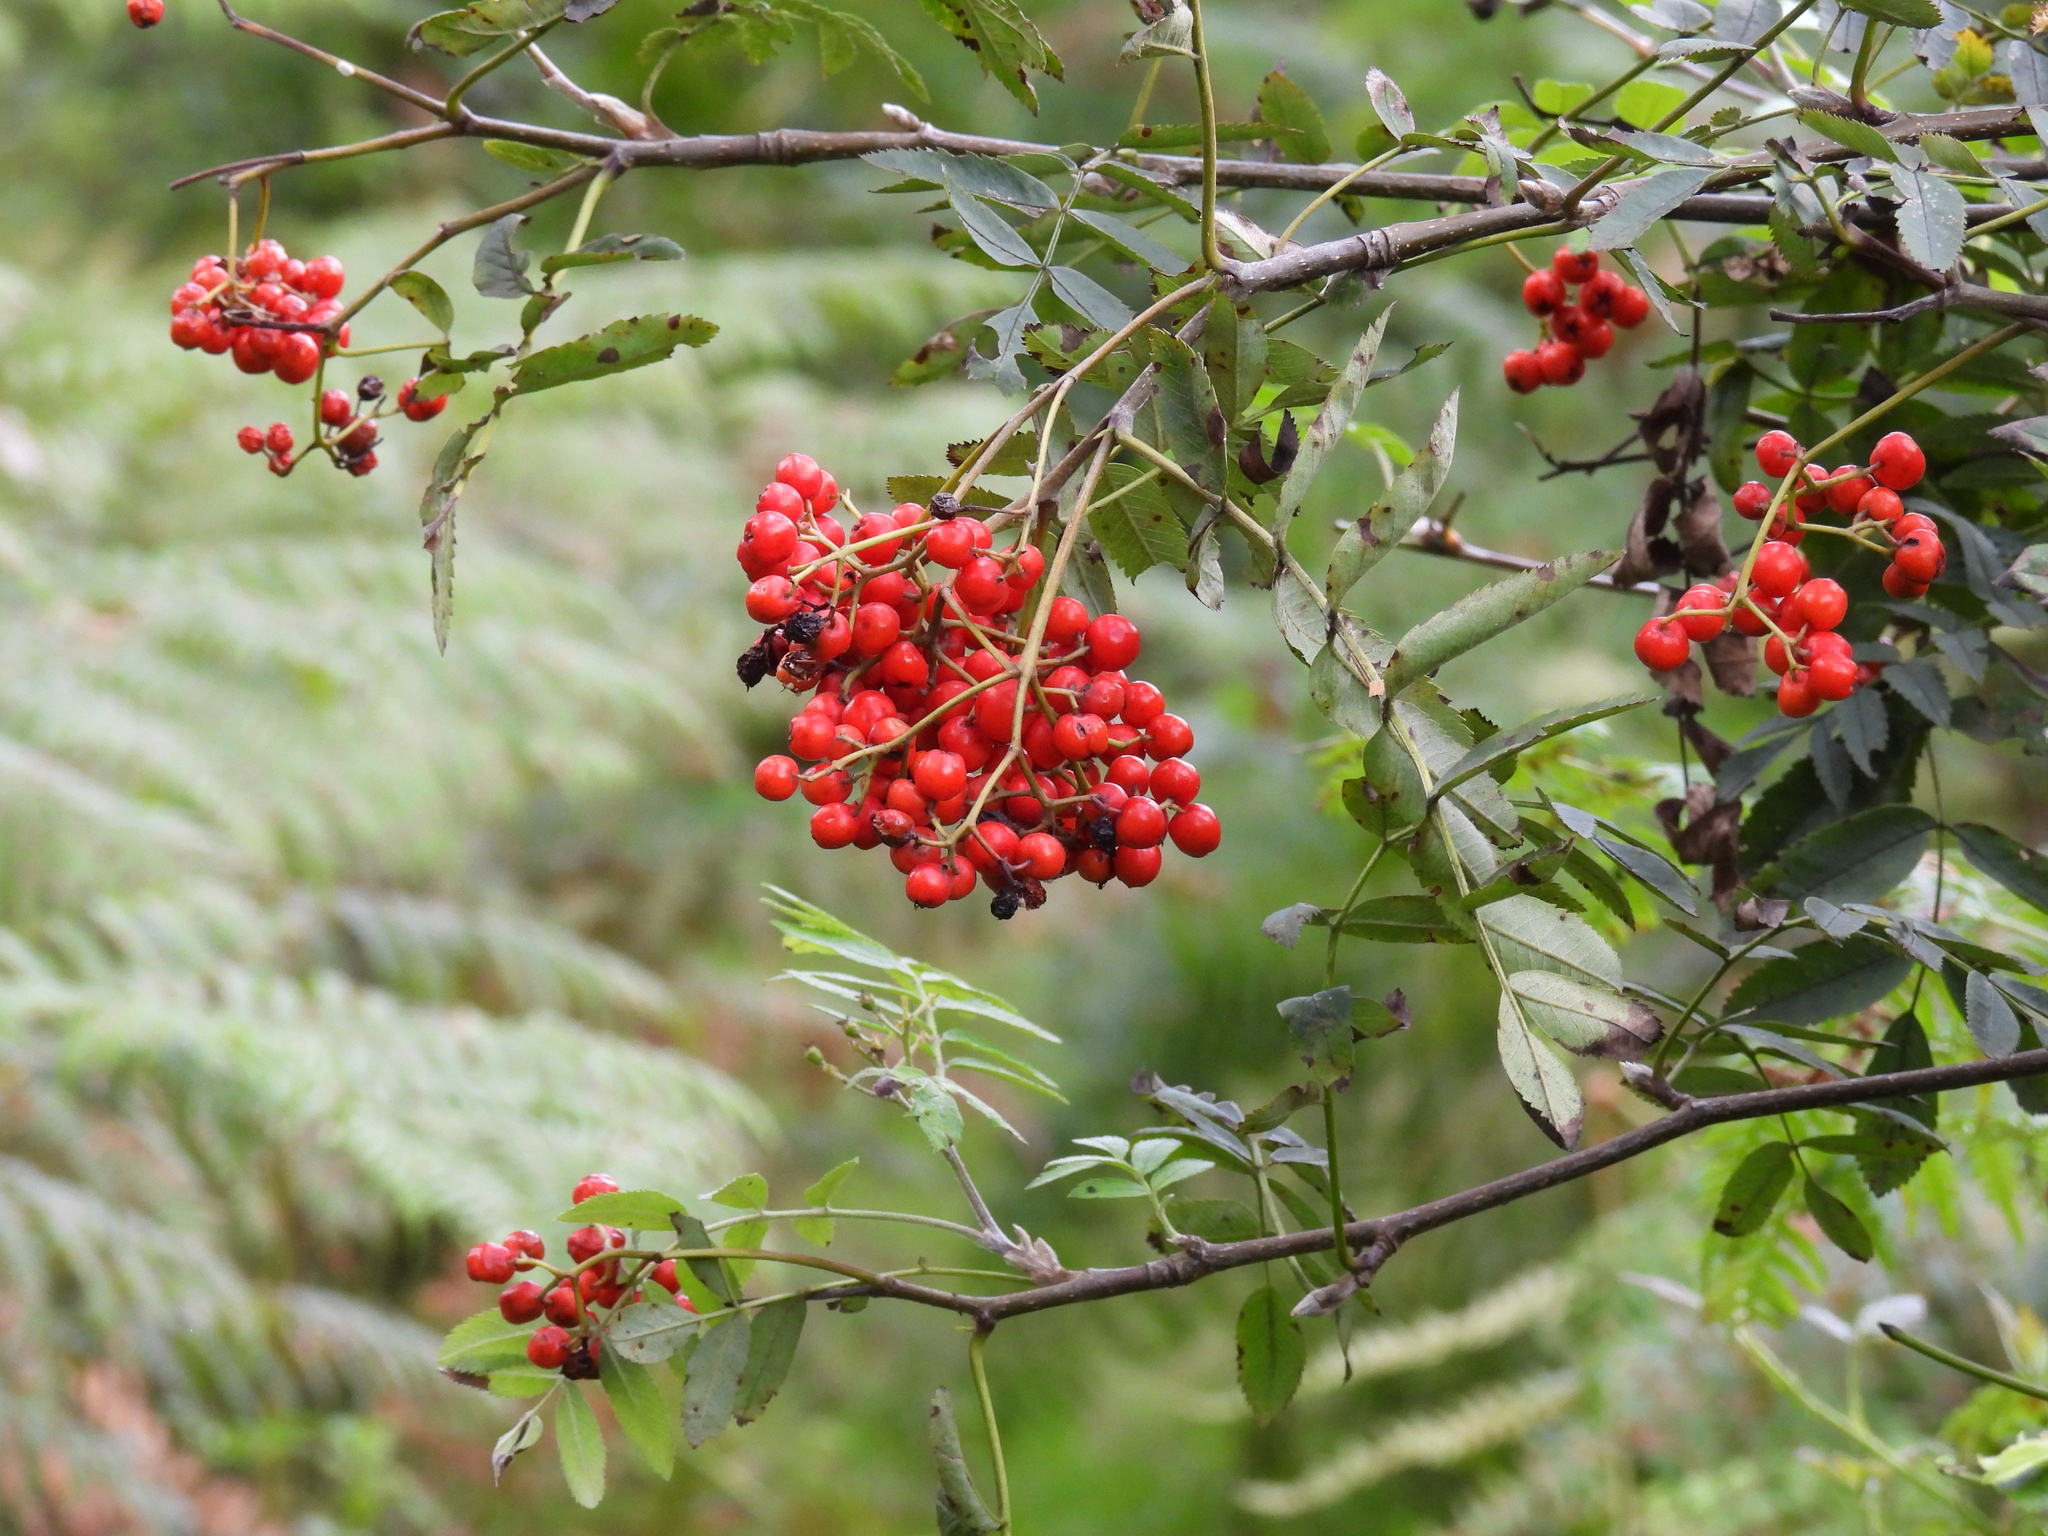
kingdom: Plantae
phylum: Tracheophyta
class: Magnoliopsida
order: Rosales
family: Rosaceae
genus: Sorbus
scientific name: Sorbus aucuparia
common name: Rowan
